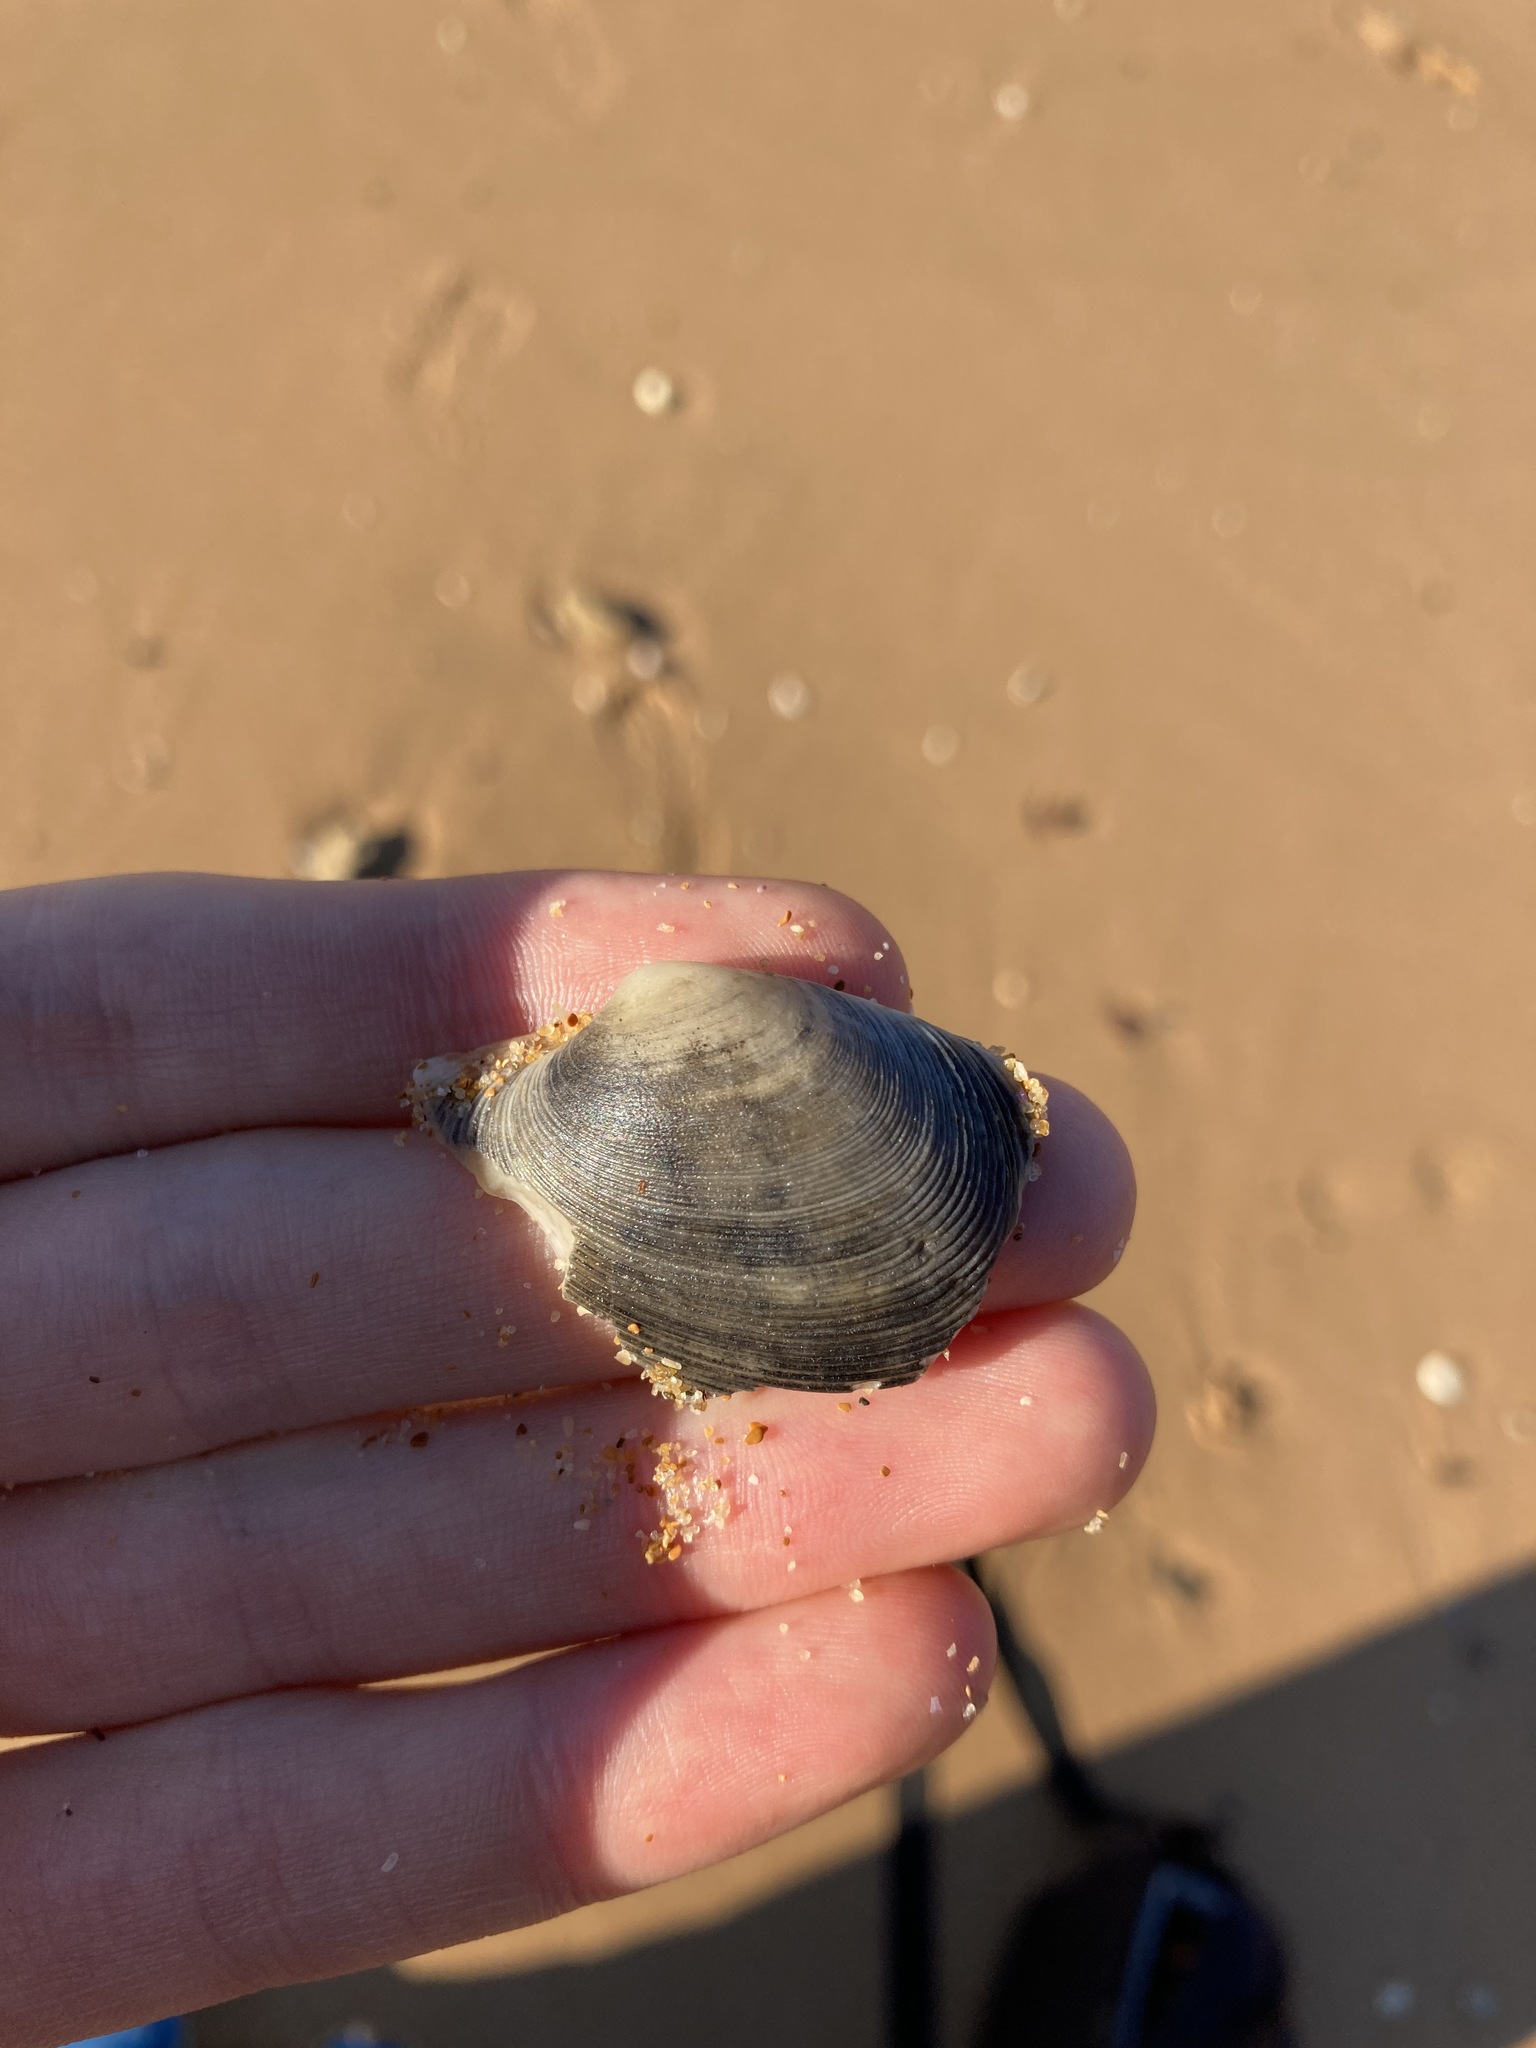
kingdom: Animalia
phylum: Mollusca
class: Bivalvia
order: Venerida
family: Veneridae
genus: Tapes
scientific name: Tapes conspersus
